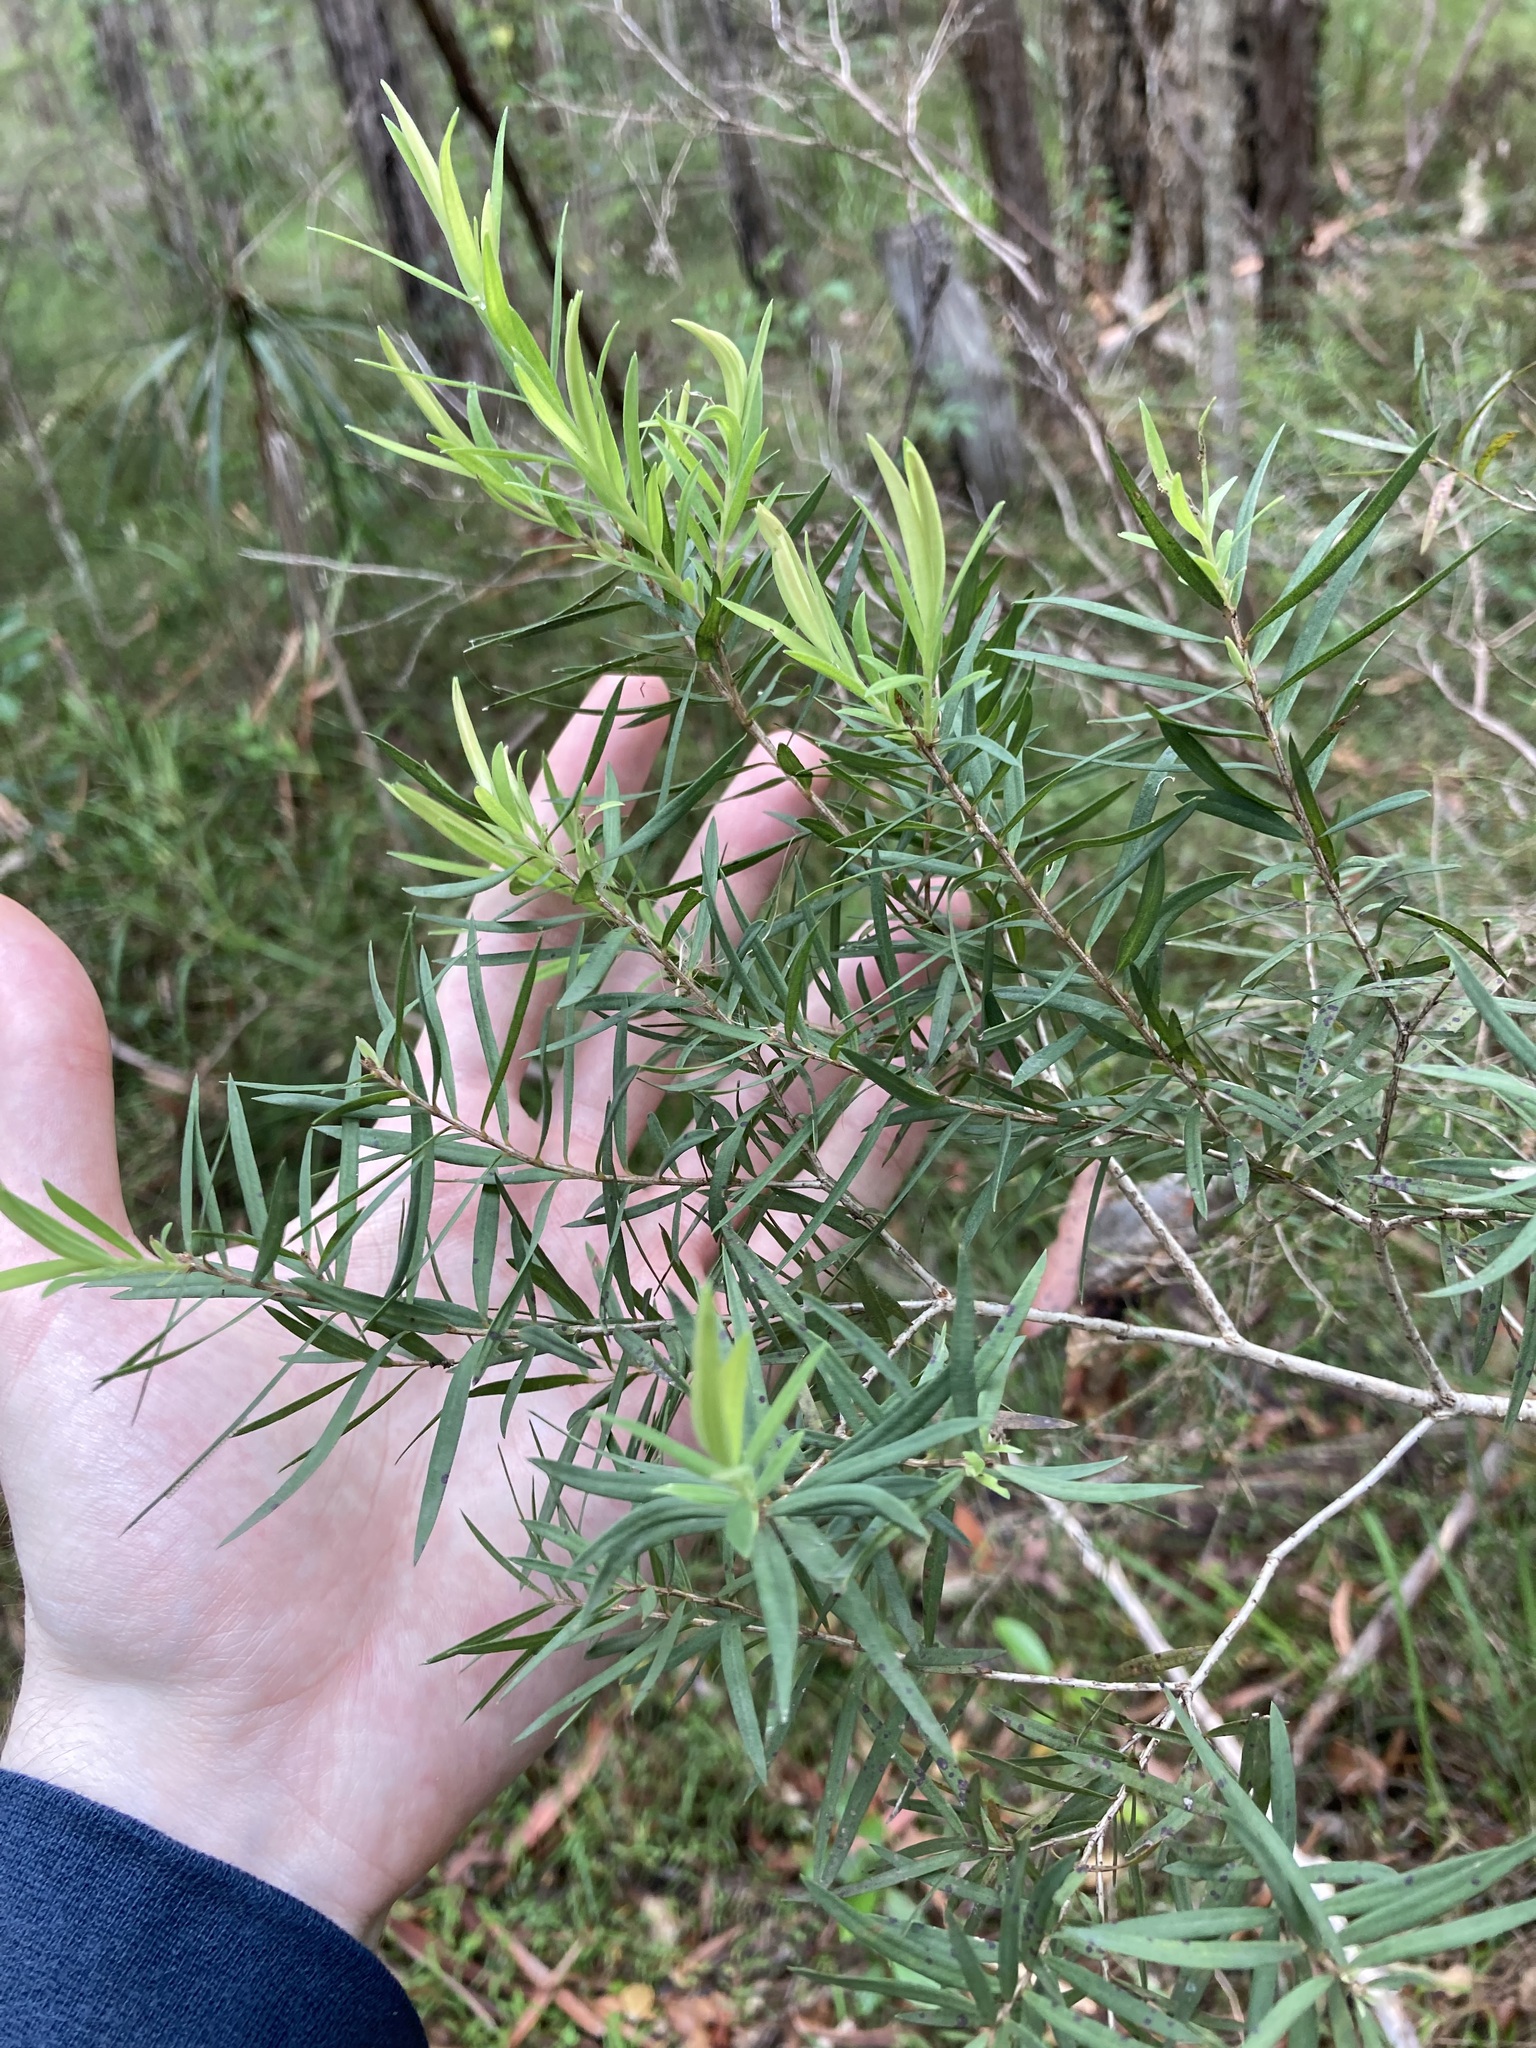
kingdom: Plantae
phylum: Tracheophyta
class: Magnoliopsida
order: Myrtales
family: Myrtaceae
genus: Melaleuca
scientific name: Melaleuca linariifolia
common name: Cajeput tree
